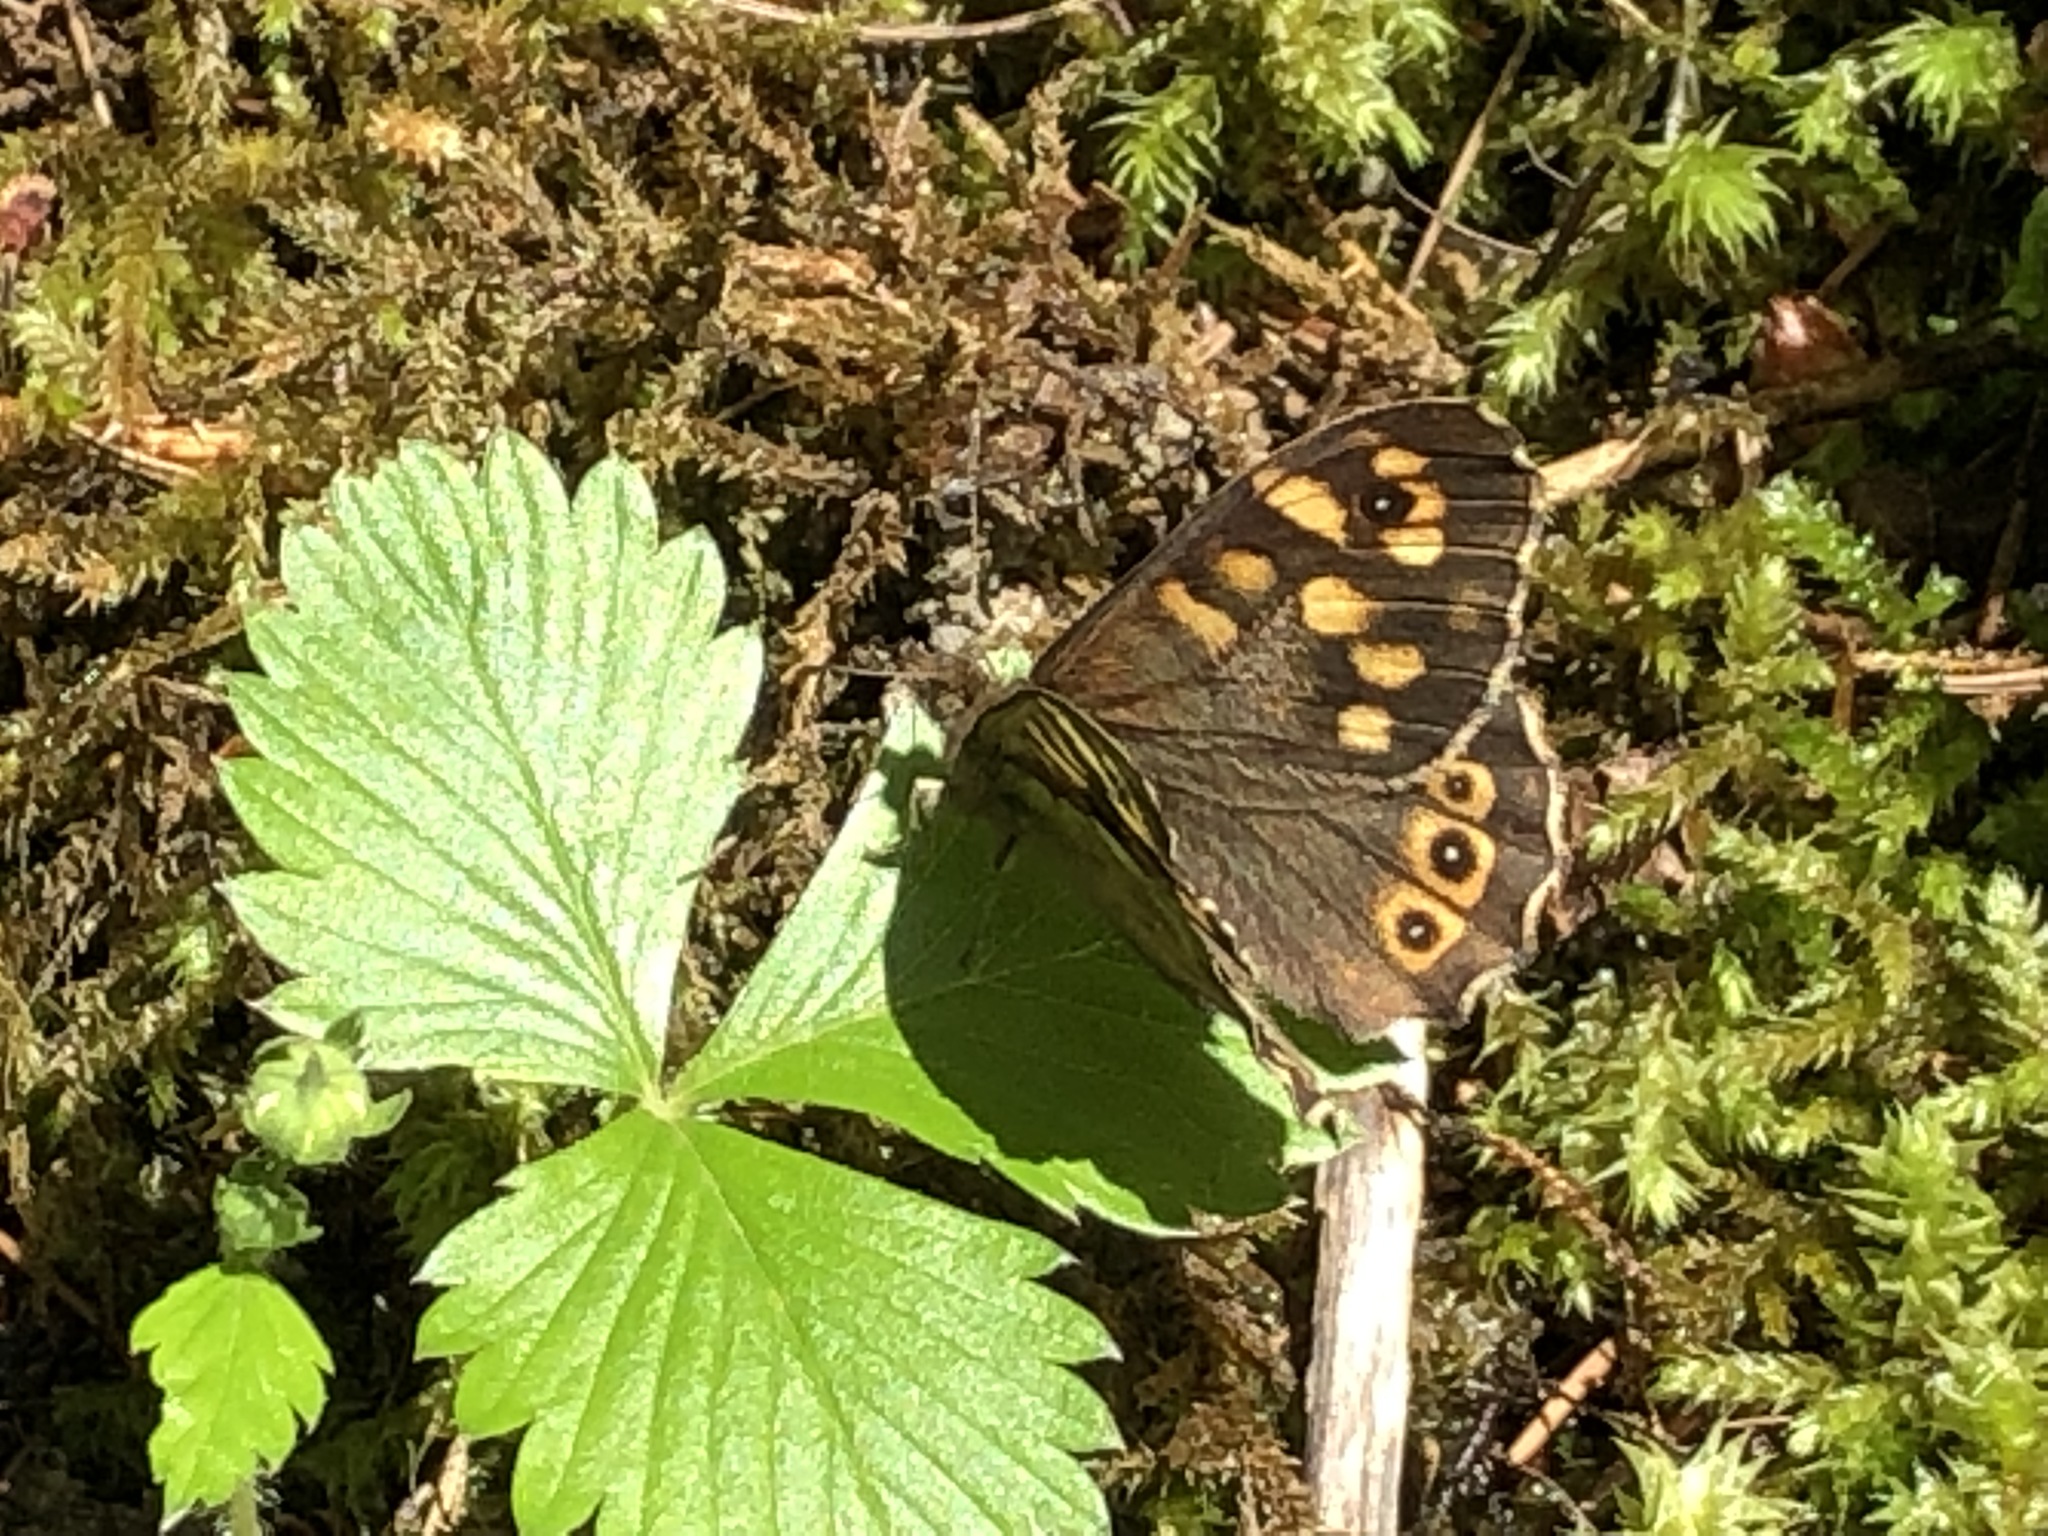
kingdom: Animalia
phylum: Arthropoda
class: Insecta
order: Lepidoptera
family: Nymphalidae
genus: Pararge
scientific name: Pararge aegeria
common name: Speckled wood
